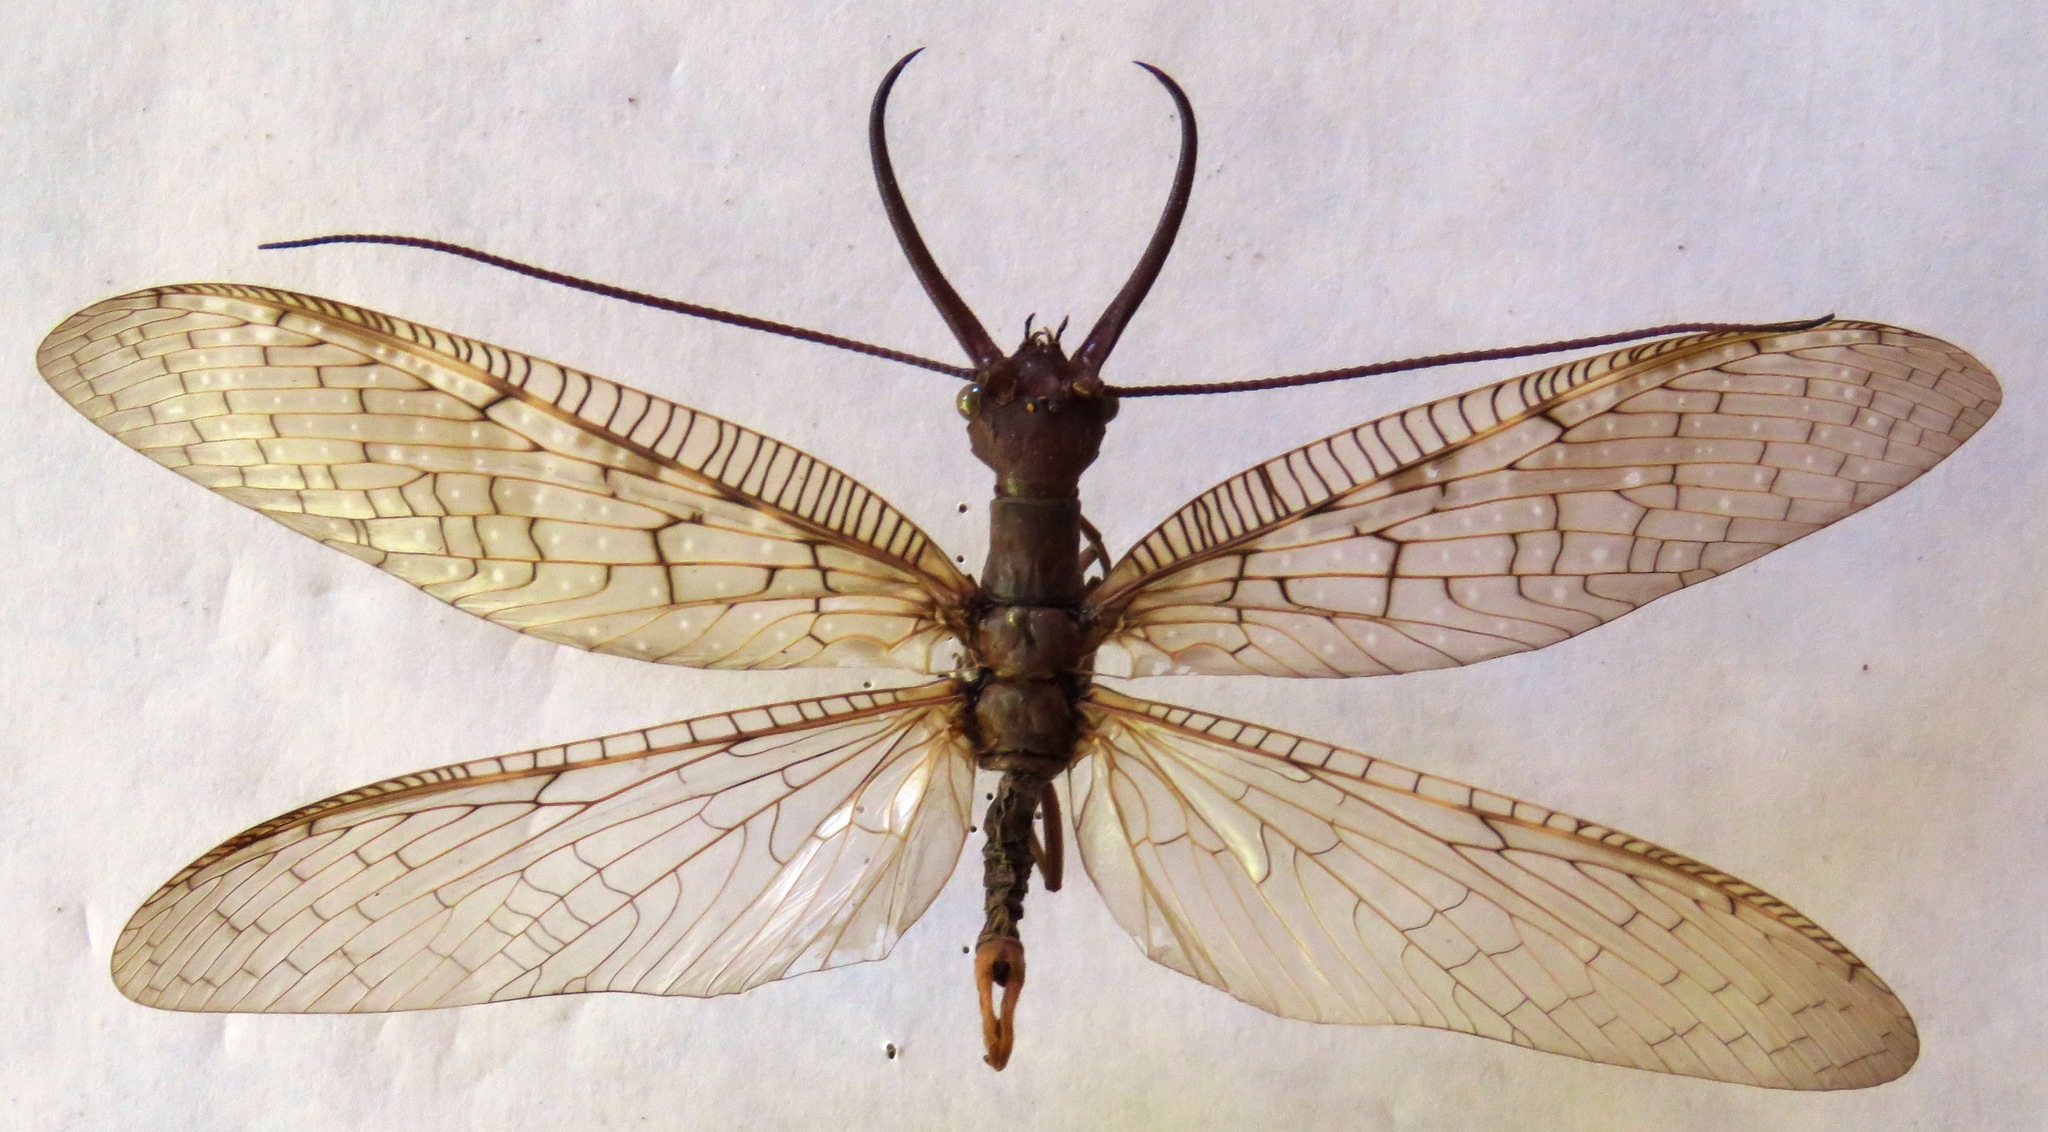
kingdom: Animalia
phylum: Arthropoda
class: Insecta
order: Megaloptera
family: Corydalidae
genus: Corydalus
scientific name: Corydalus magnus
